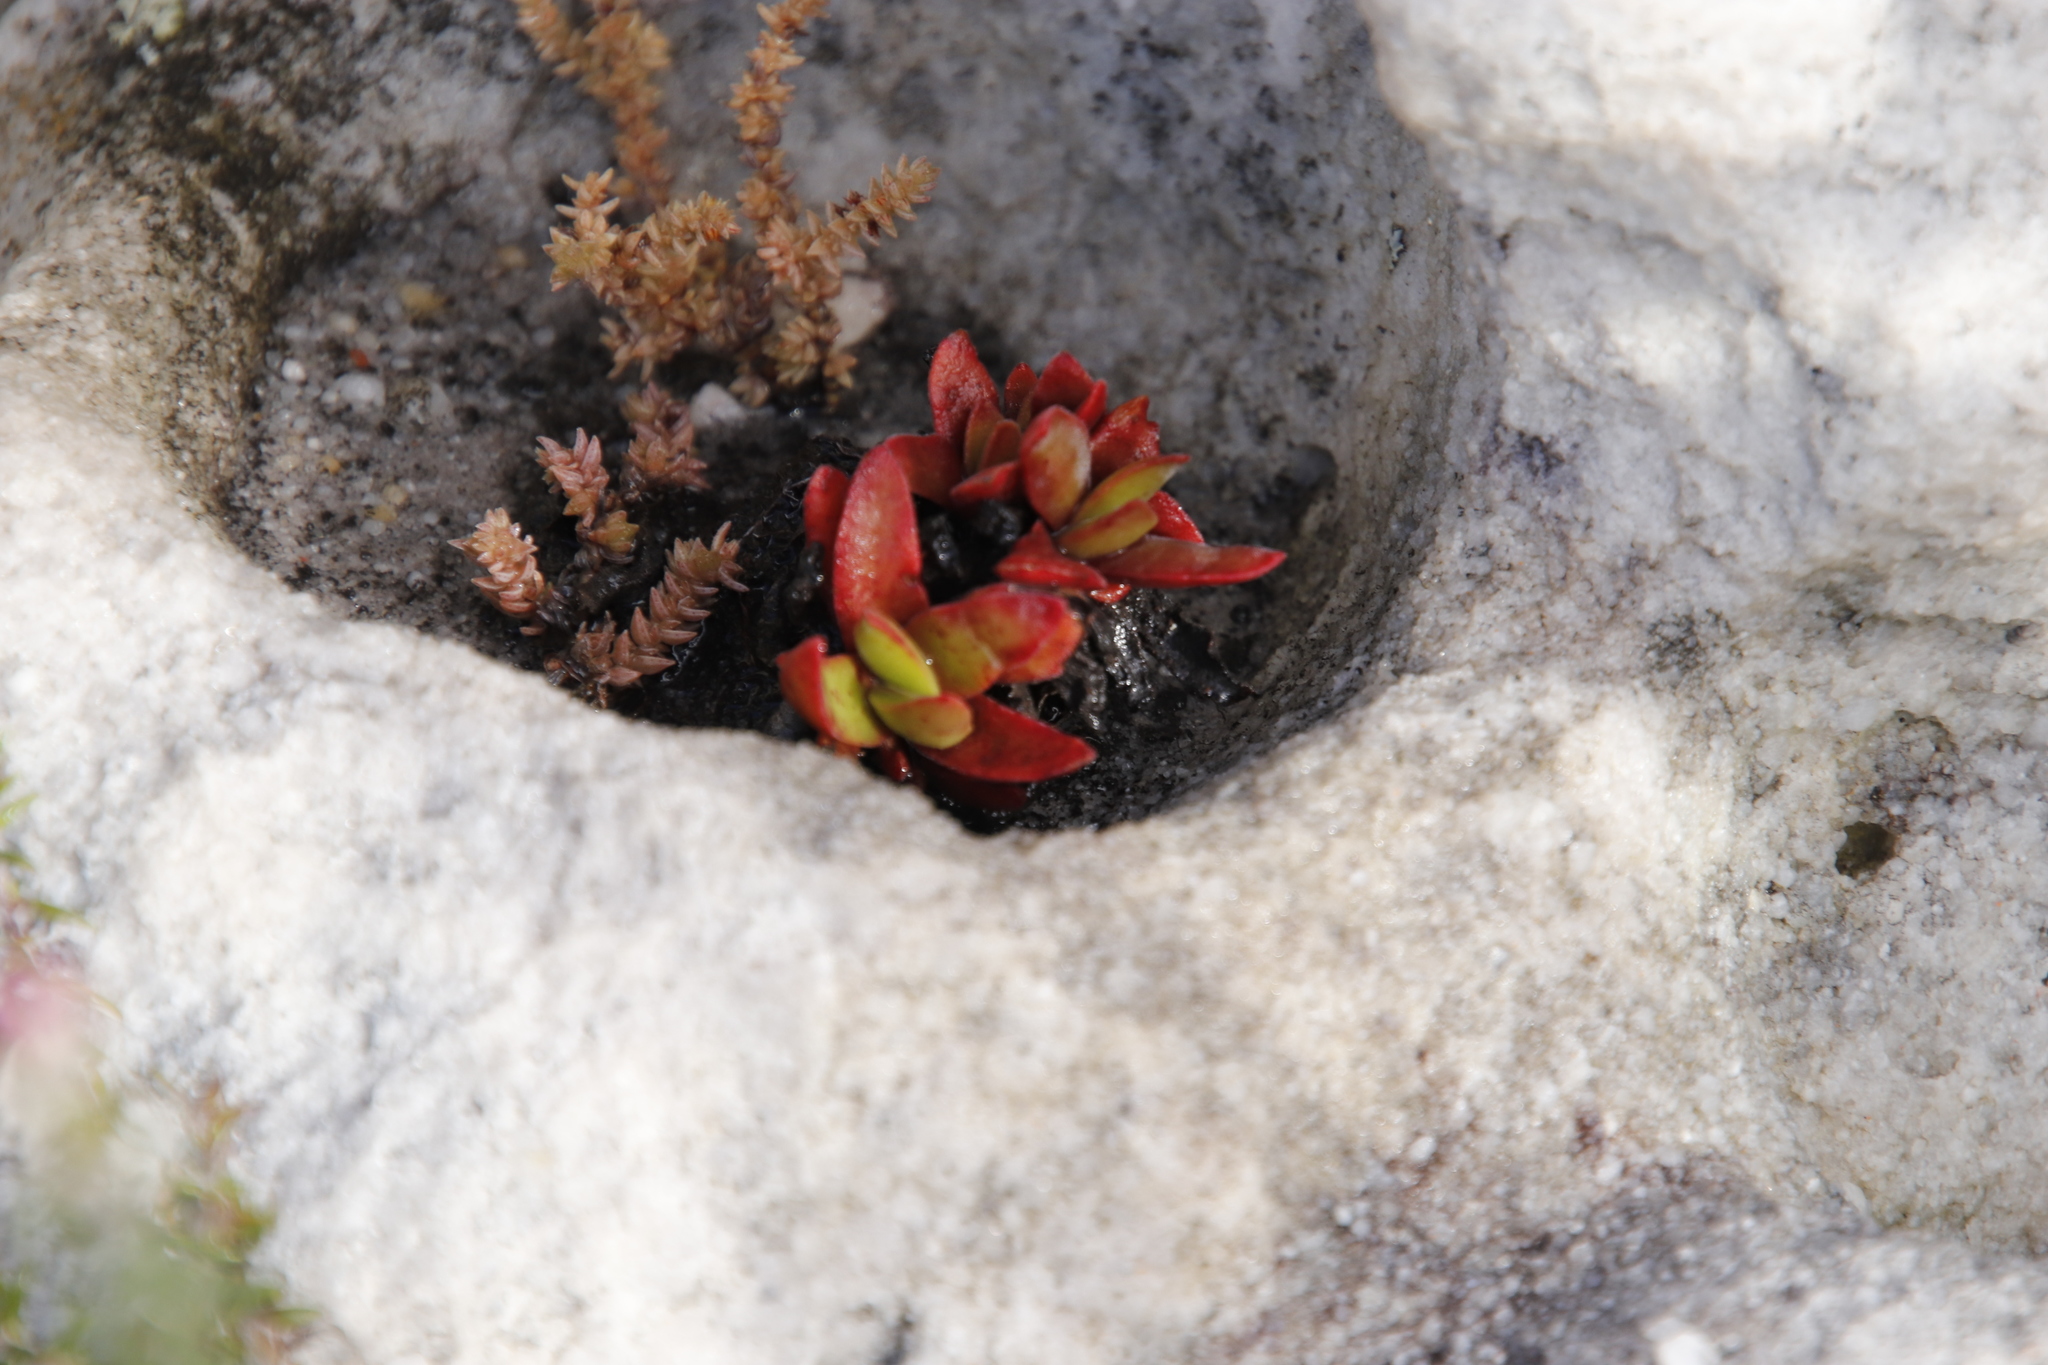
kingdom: Plantae
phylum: Tracheophyta
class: Magnoliopsida
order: Saxifragales
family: Crassulaceae
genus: Crassula
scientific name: Crassula nudicaulis
